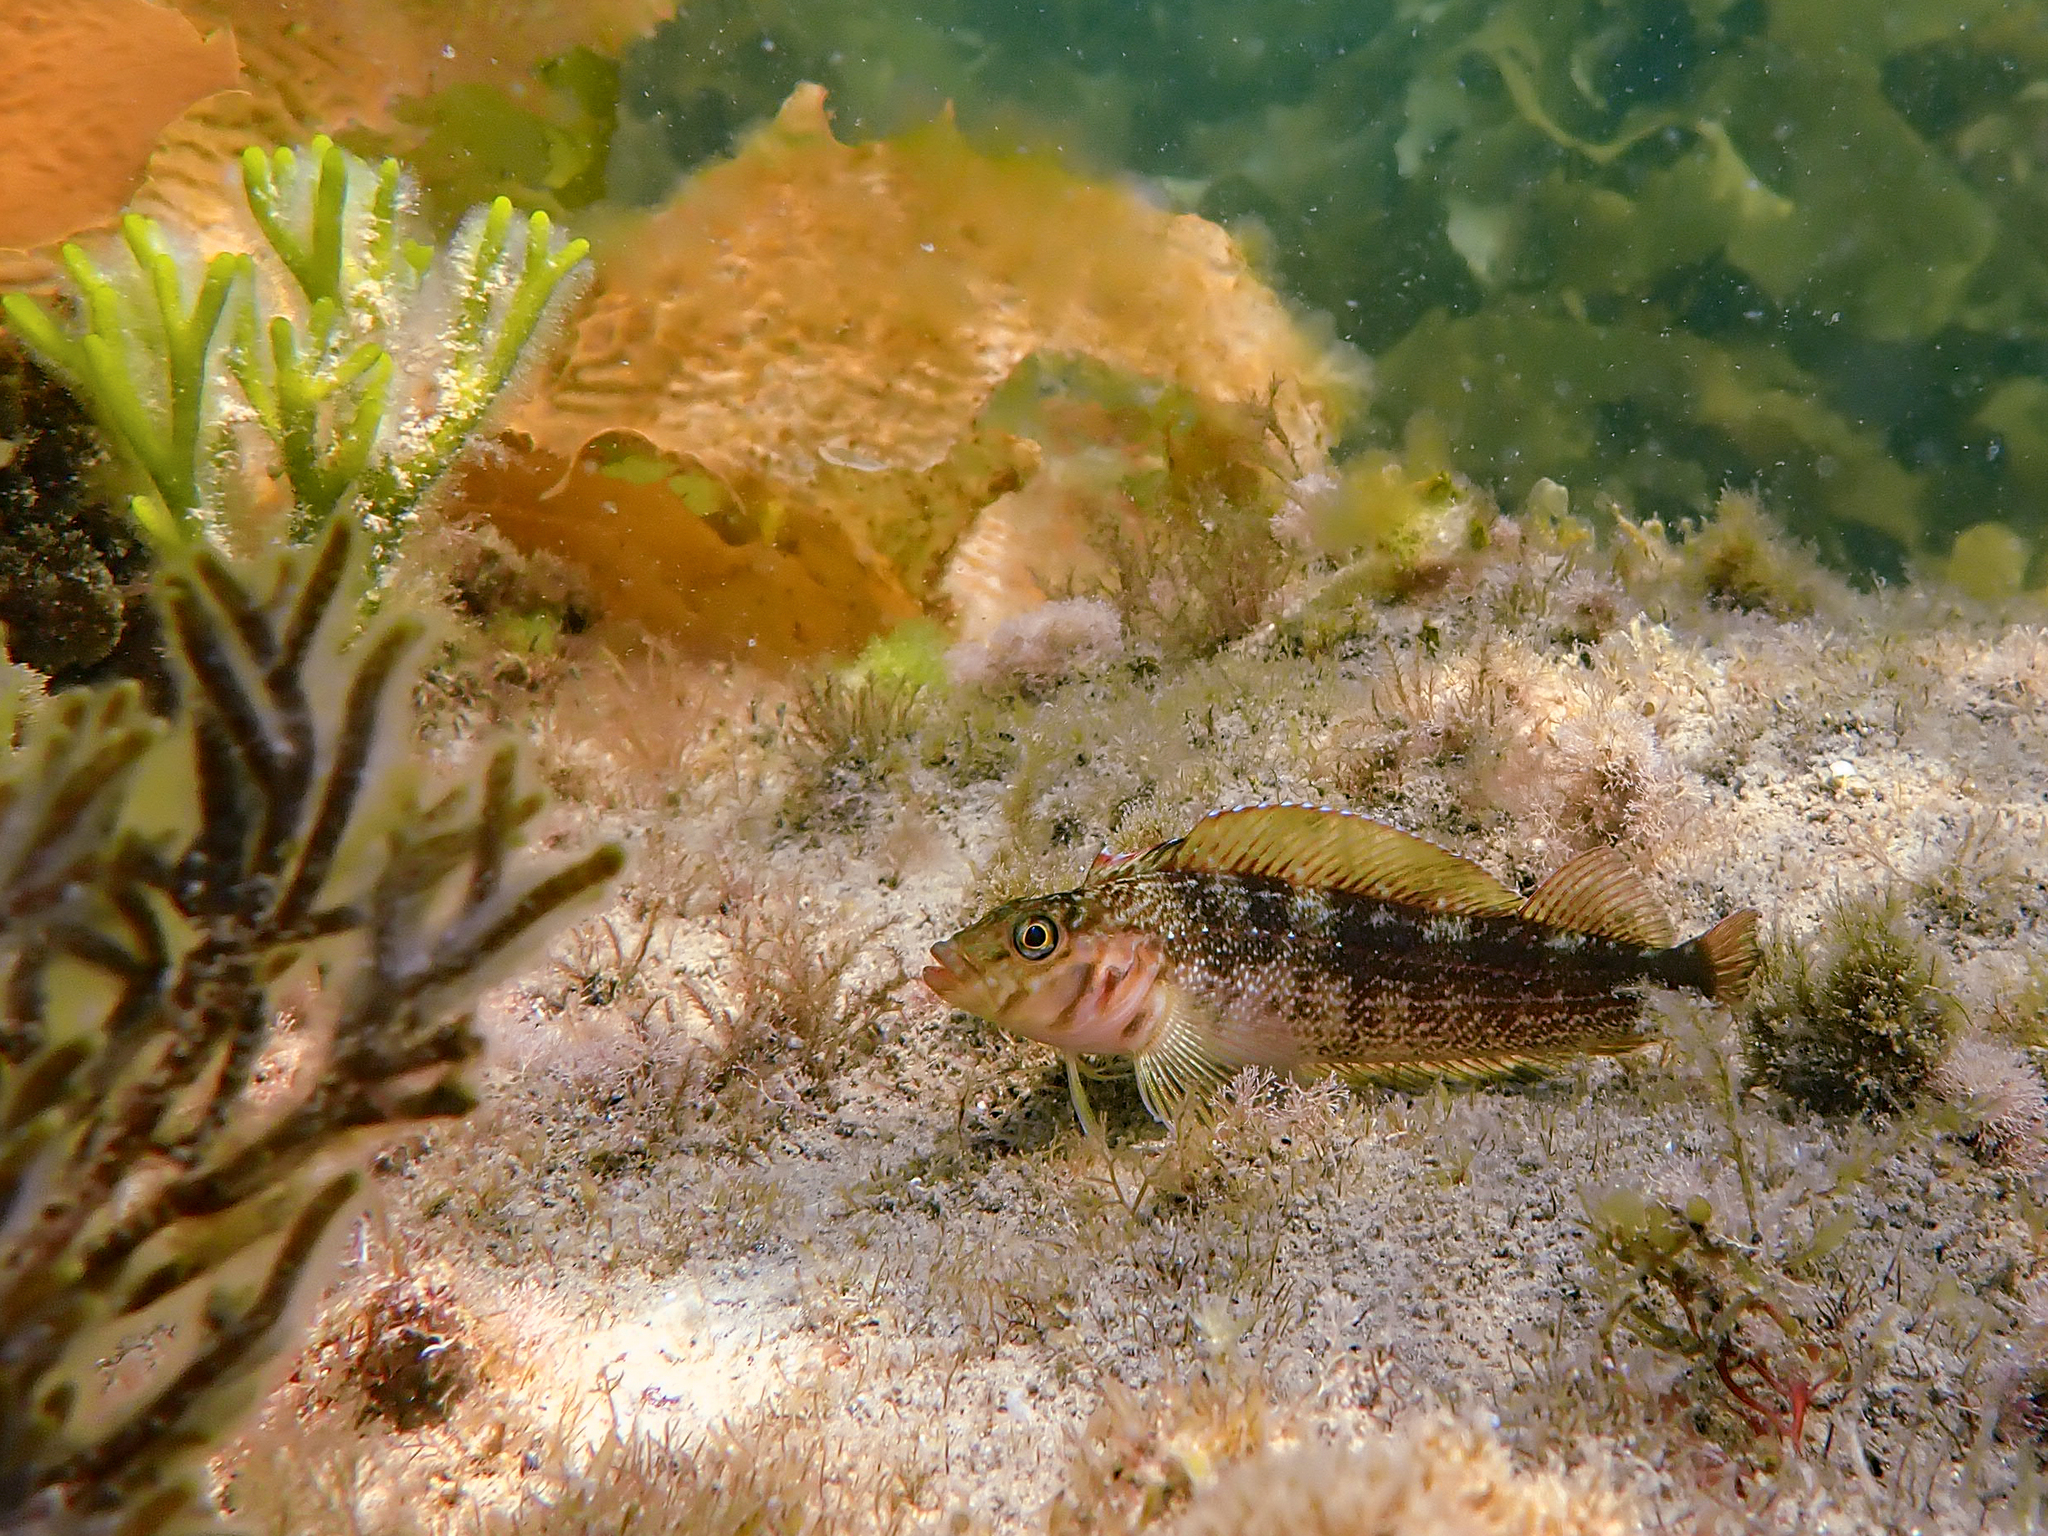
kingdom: Animalia
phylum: Chordata
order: Perciformes
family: Tripterygiidae
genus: Forsterygion
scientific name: Forsterygion varium
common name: Variable triplefin
